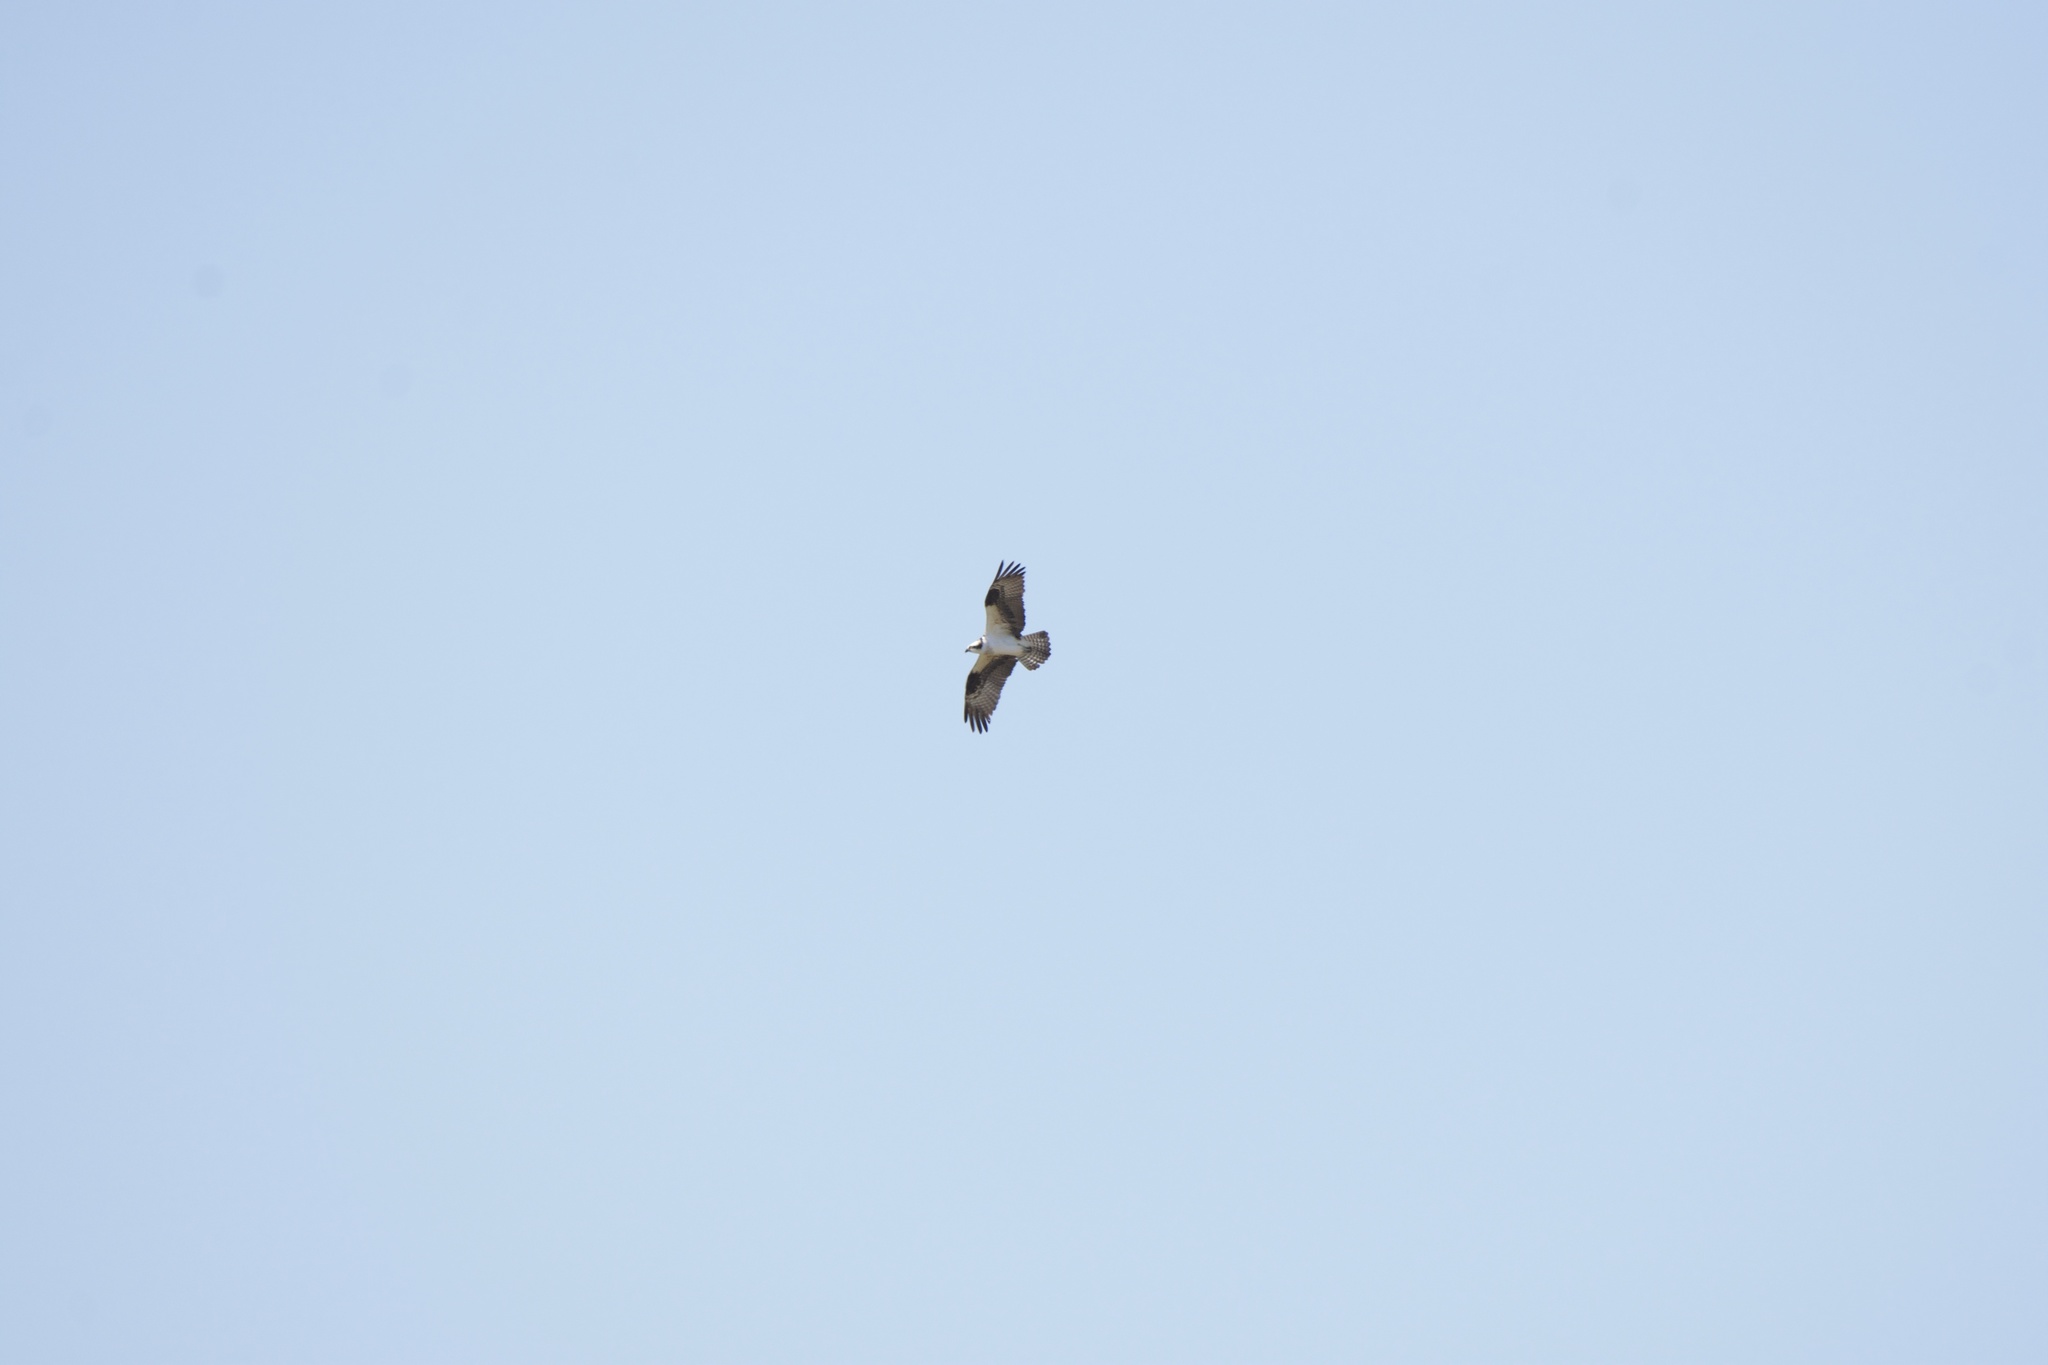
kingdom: Animalia
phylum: Chordata
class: Aves
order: Accipitriformes
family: Pandionidae
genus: Pandion
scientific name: Pandion haliaetus
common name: Osprey
